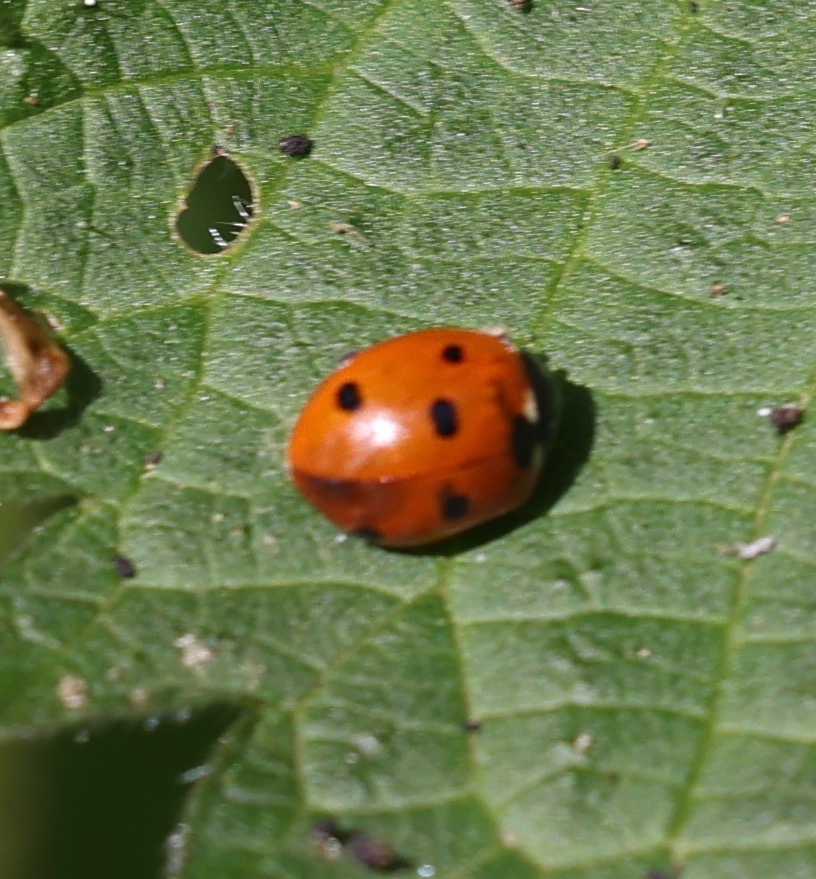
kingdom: Animalia
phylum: Arthropoda
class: Insecta
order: Coleoptera
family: Coccinellidae
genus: Coccinella
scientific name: Coccinella septempunctata
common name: Sevenspotted lady beetle
